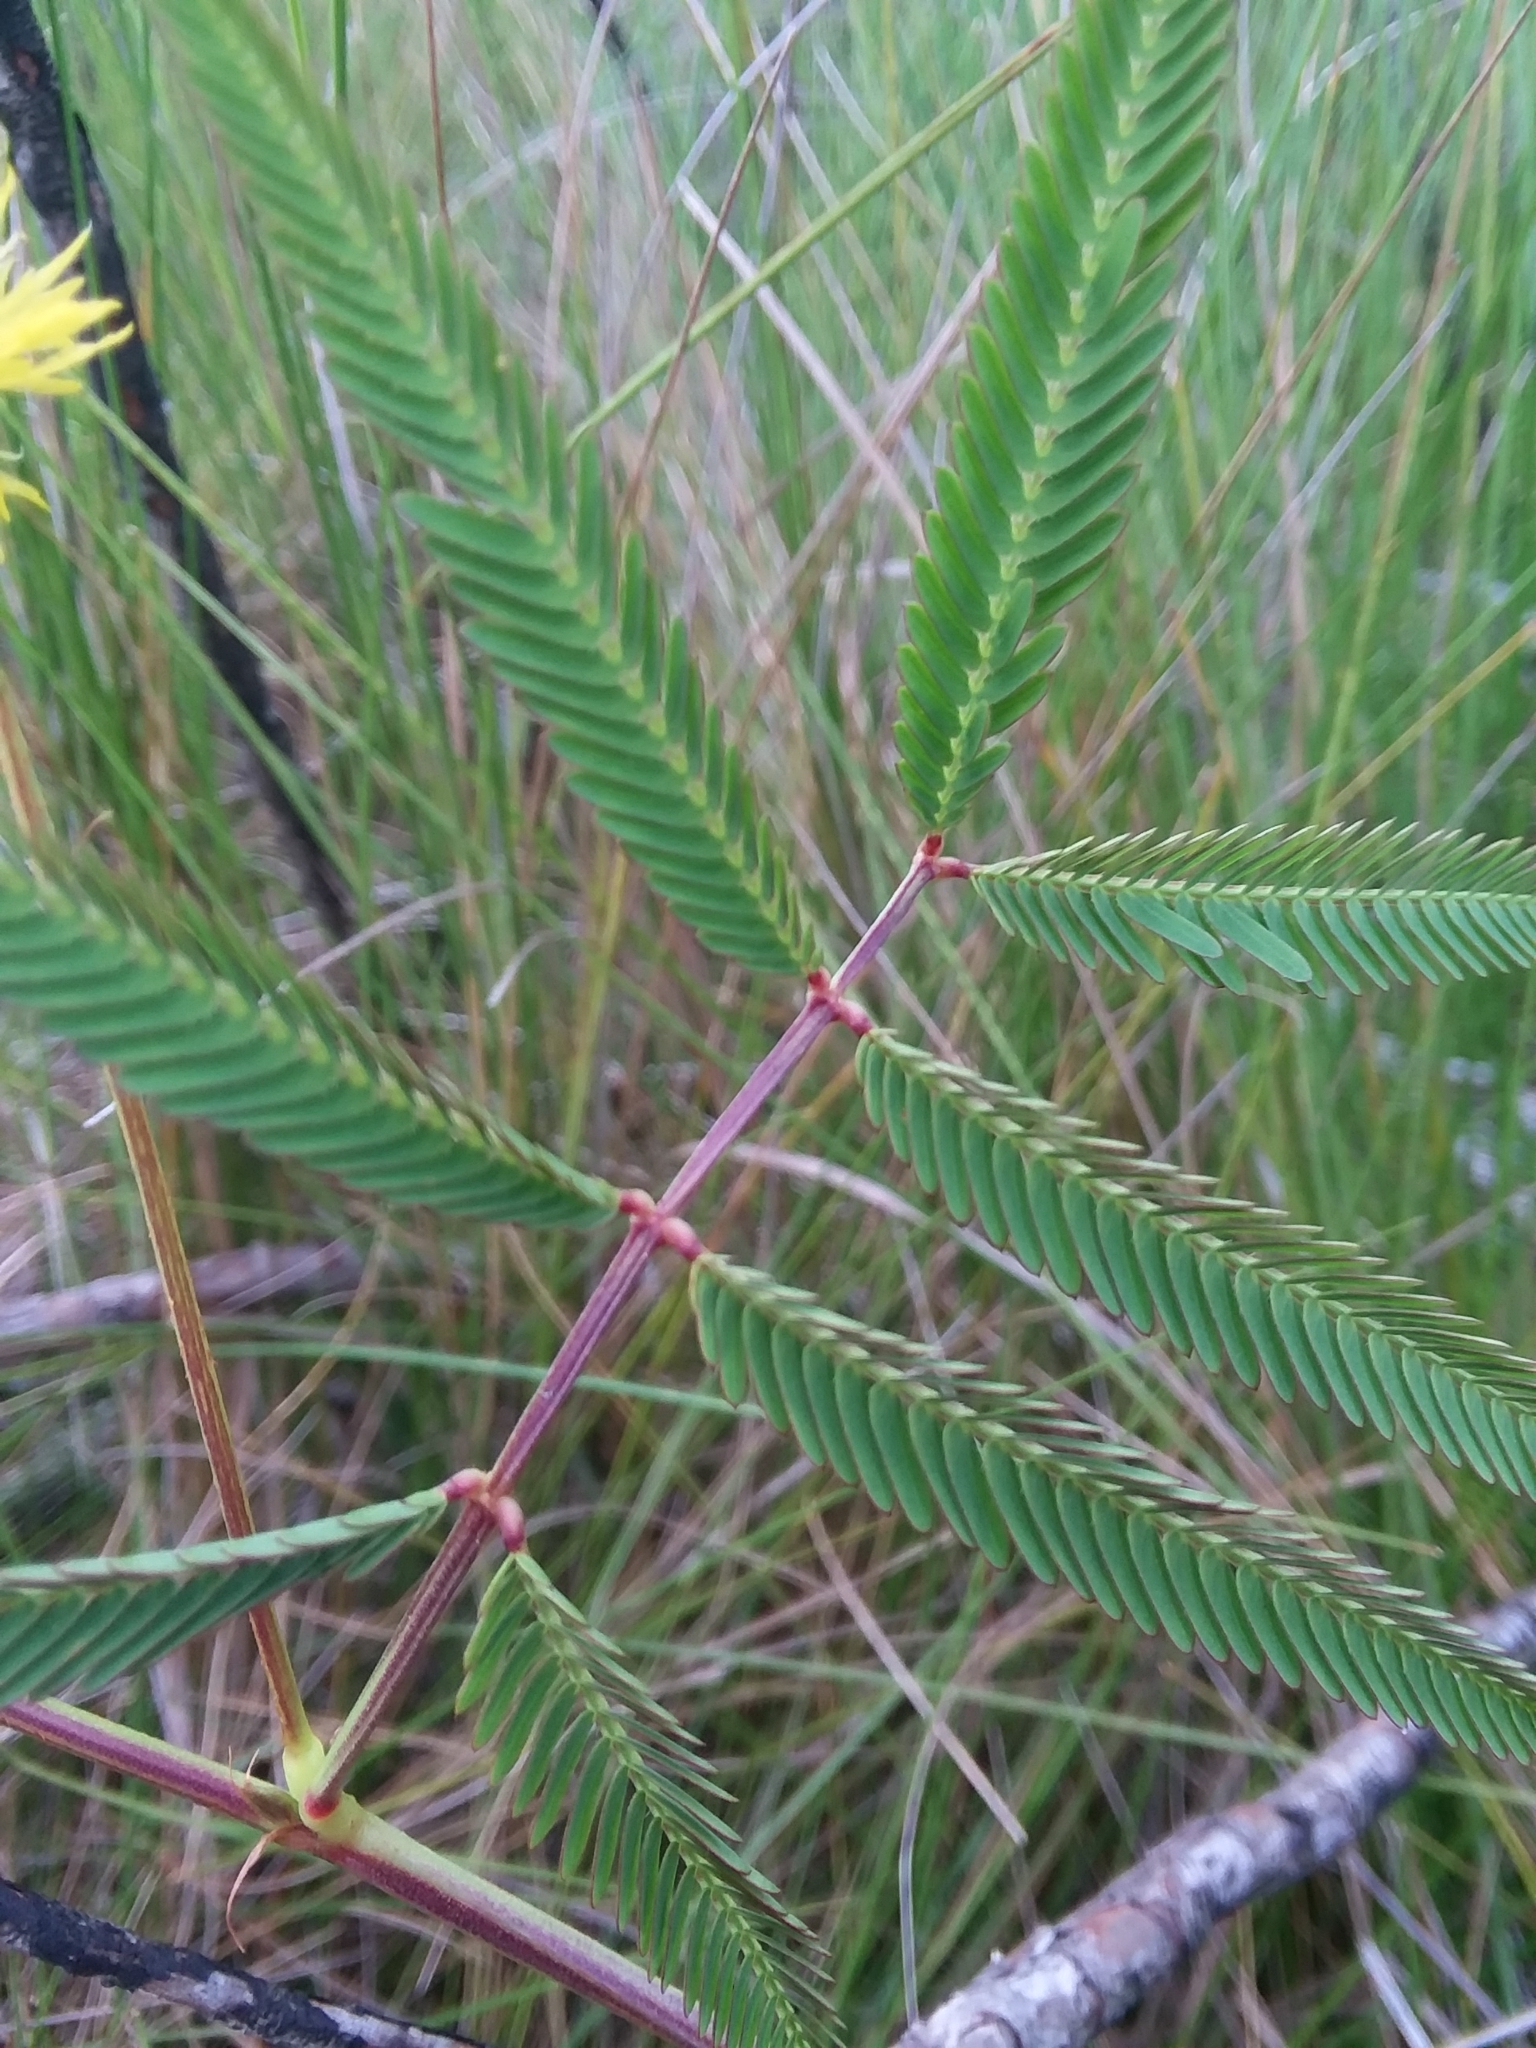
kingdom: Plantae
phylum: Tracheophyta
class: Magnoliopsida
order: Fabales
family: Fabaceae
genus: Neptunia
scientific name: Neptunia pubescens
